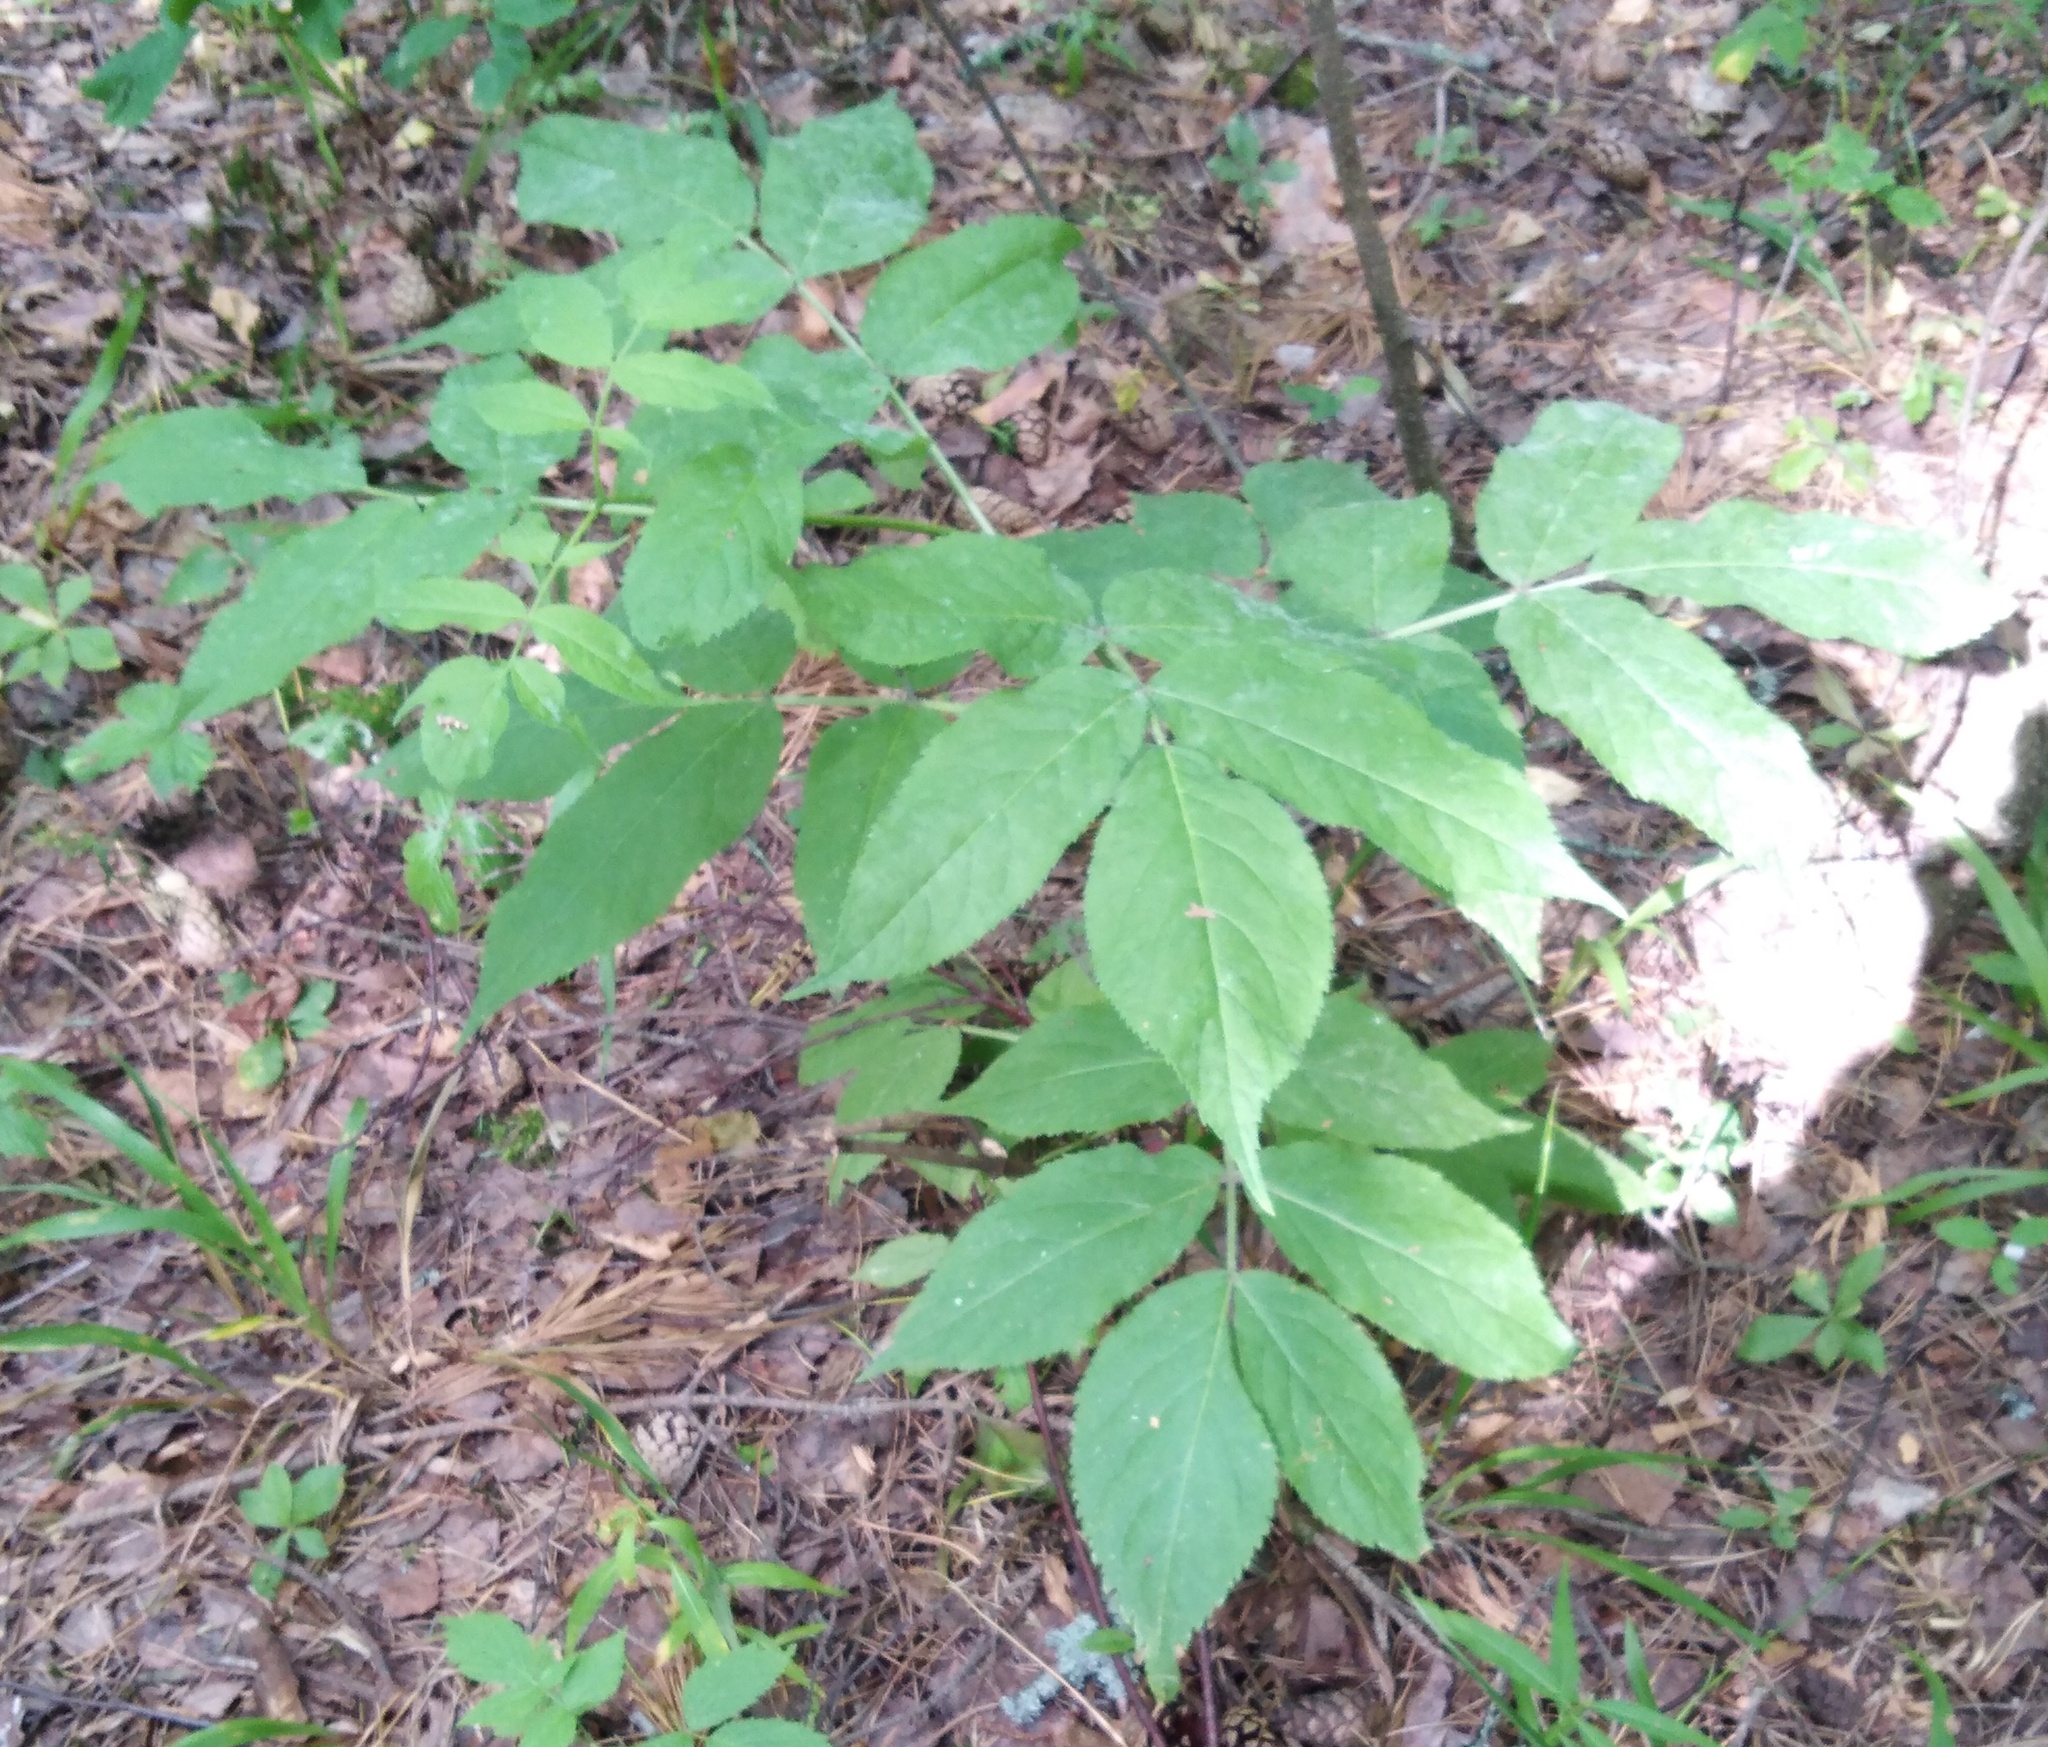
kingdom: Plantae
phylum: Tracheophyta
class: Magnoliopsida
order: Dipsacales
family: Viburnaceae
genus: Sambucus
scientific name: Sambucus racemosa
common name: Red-berried elder
